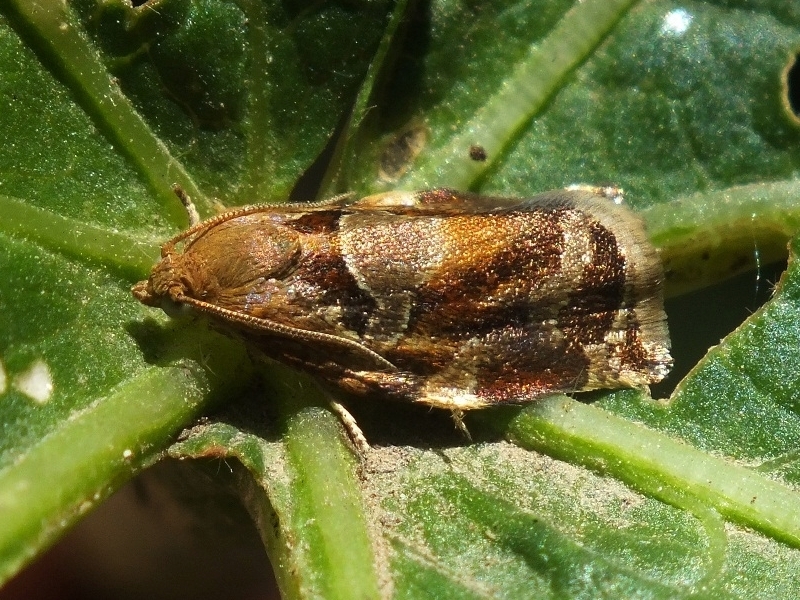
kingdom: Animalia
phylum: Arthropoda
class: Insecta
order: Lepidoptera
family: Tortricidae
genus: Archips
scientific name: Archips xylosteana
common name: Variegated golden tortrix
